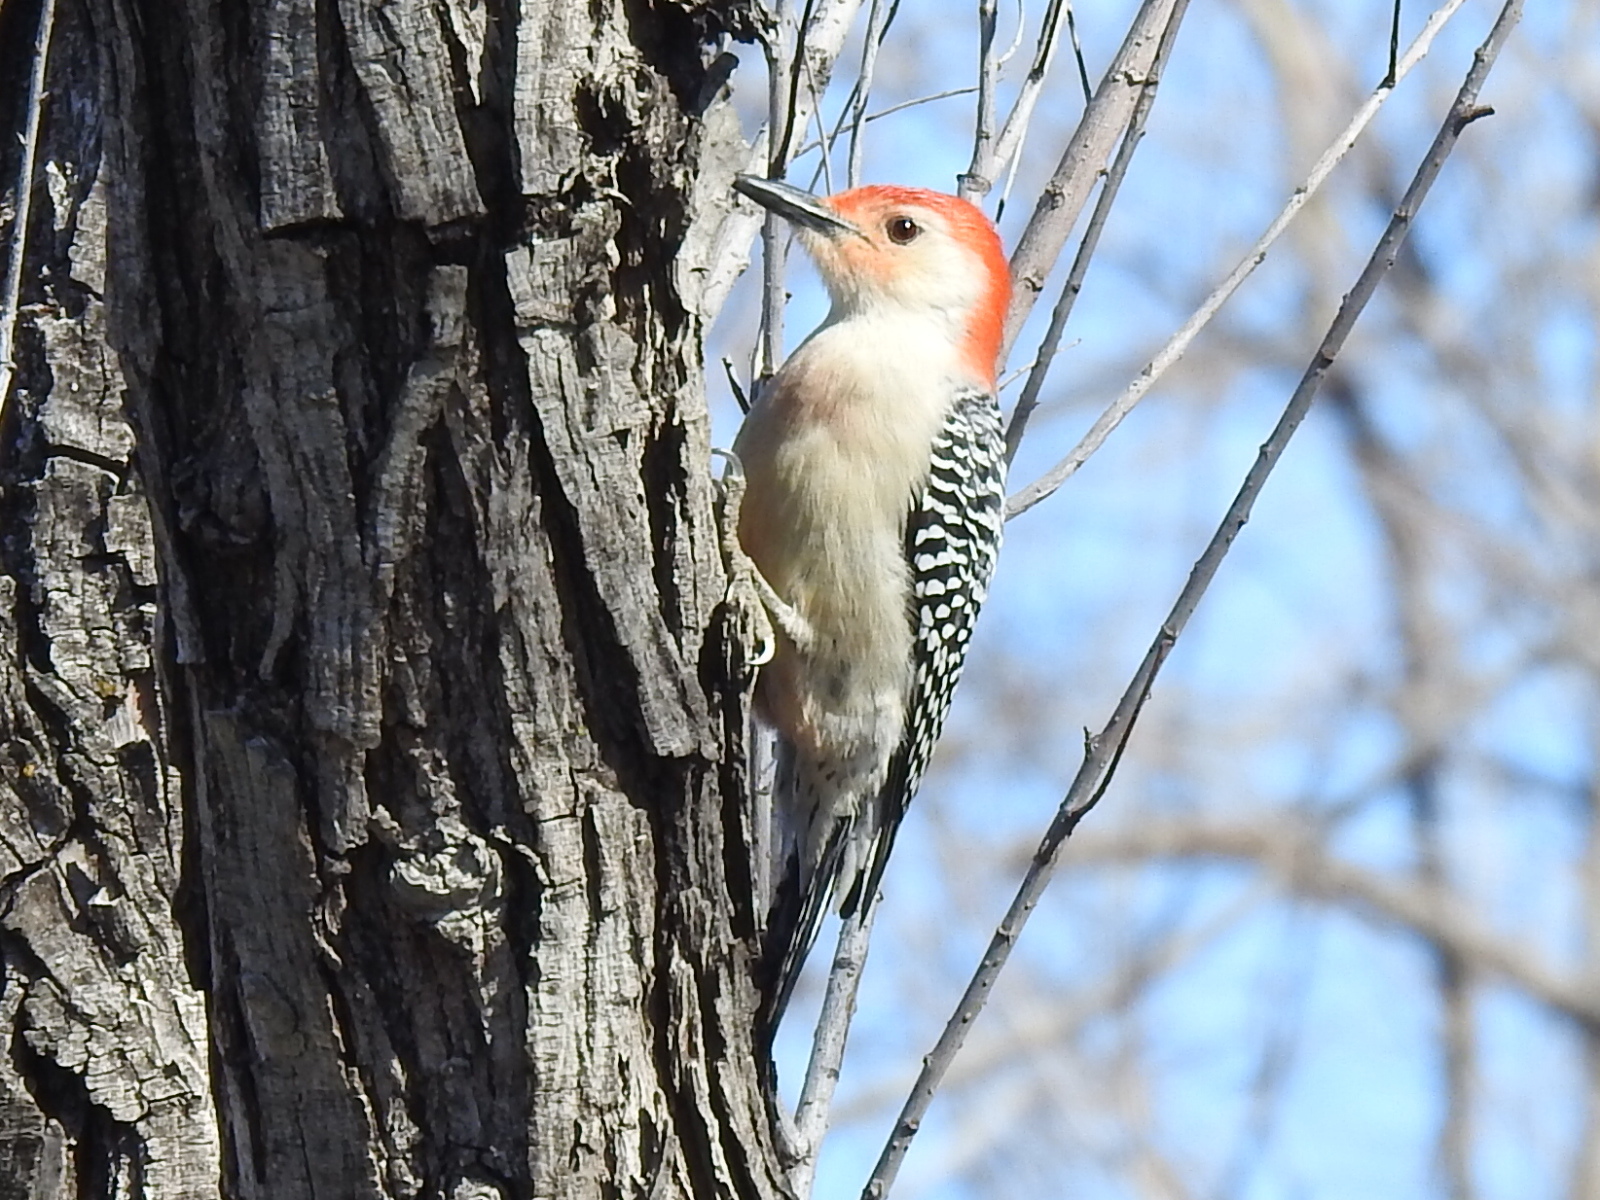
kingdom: Animalia
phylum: Chordata
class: Aves
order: Piciformes
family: Picidae
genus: Melanerpes
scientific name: Melanerpes carolinus
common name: Red-bellied woodpecker
